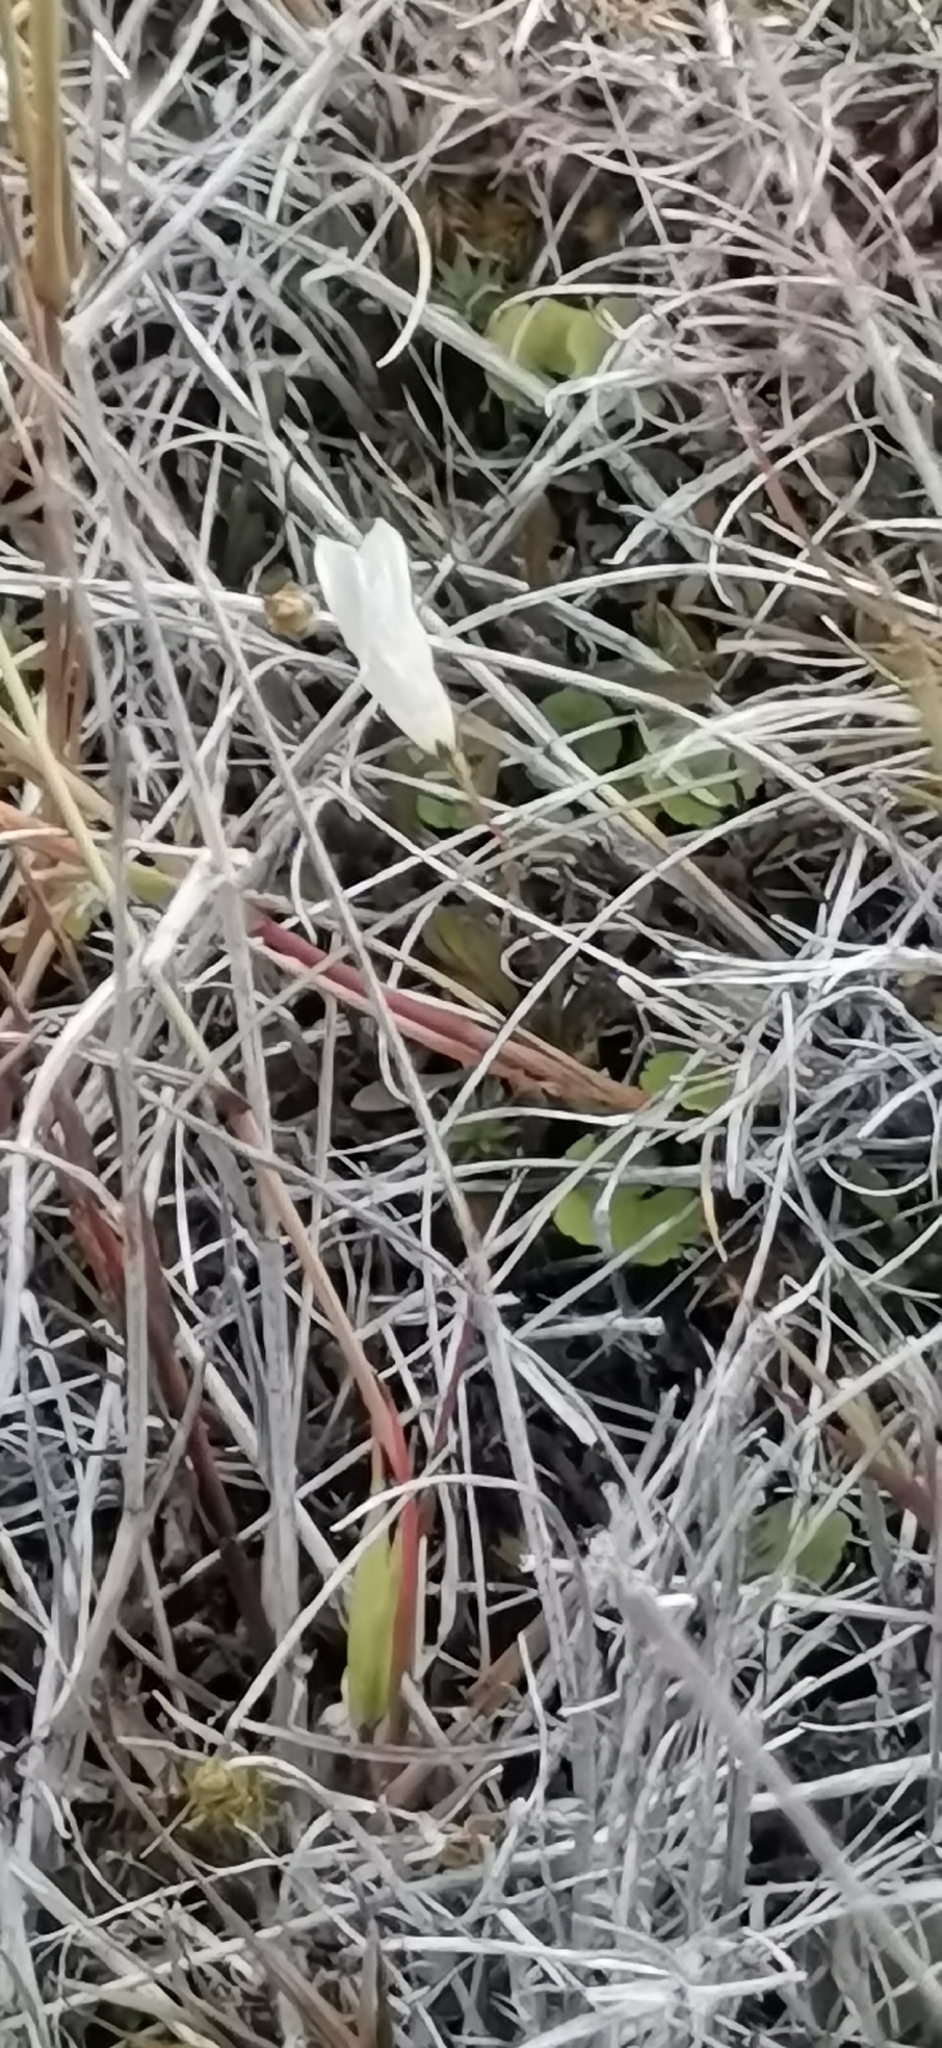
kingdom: Plantae
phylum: Tracheophyta
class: Magnoliopsida
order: Asterales
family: Campanulaceae
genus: Wahlenbergia
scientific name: Wahlenbergia albomarginata
